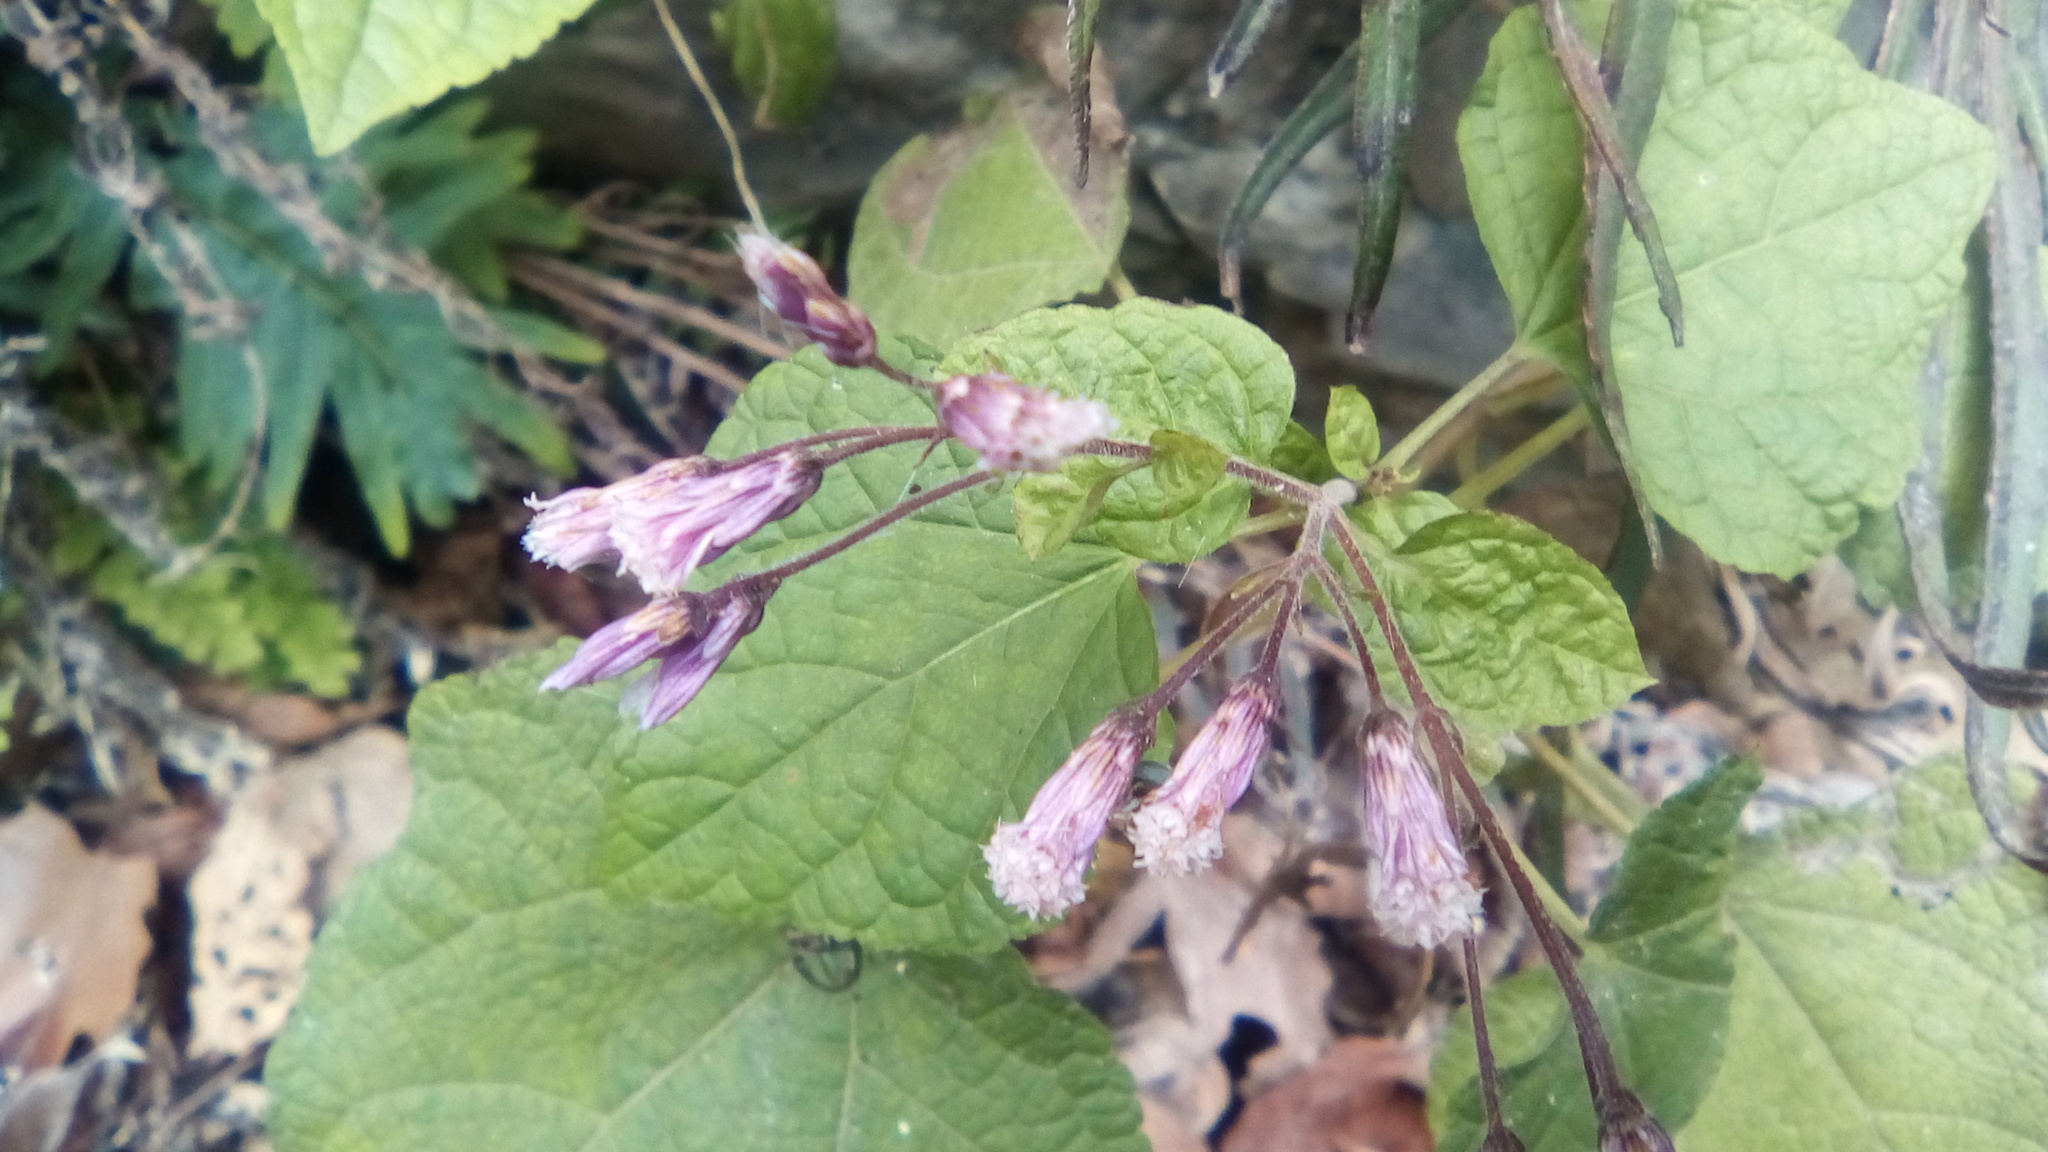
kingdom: Plantae
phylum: Tracheophyta
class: Magnoliopsida
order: Asterales
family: Asteraceae
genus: Peteravenia
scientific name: Peteravenia malvifolia
